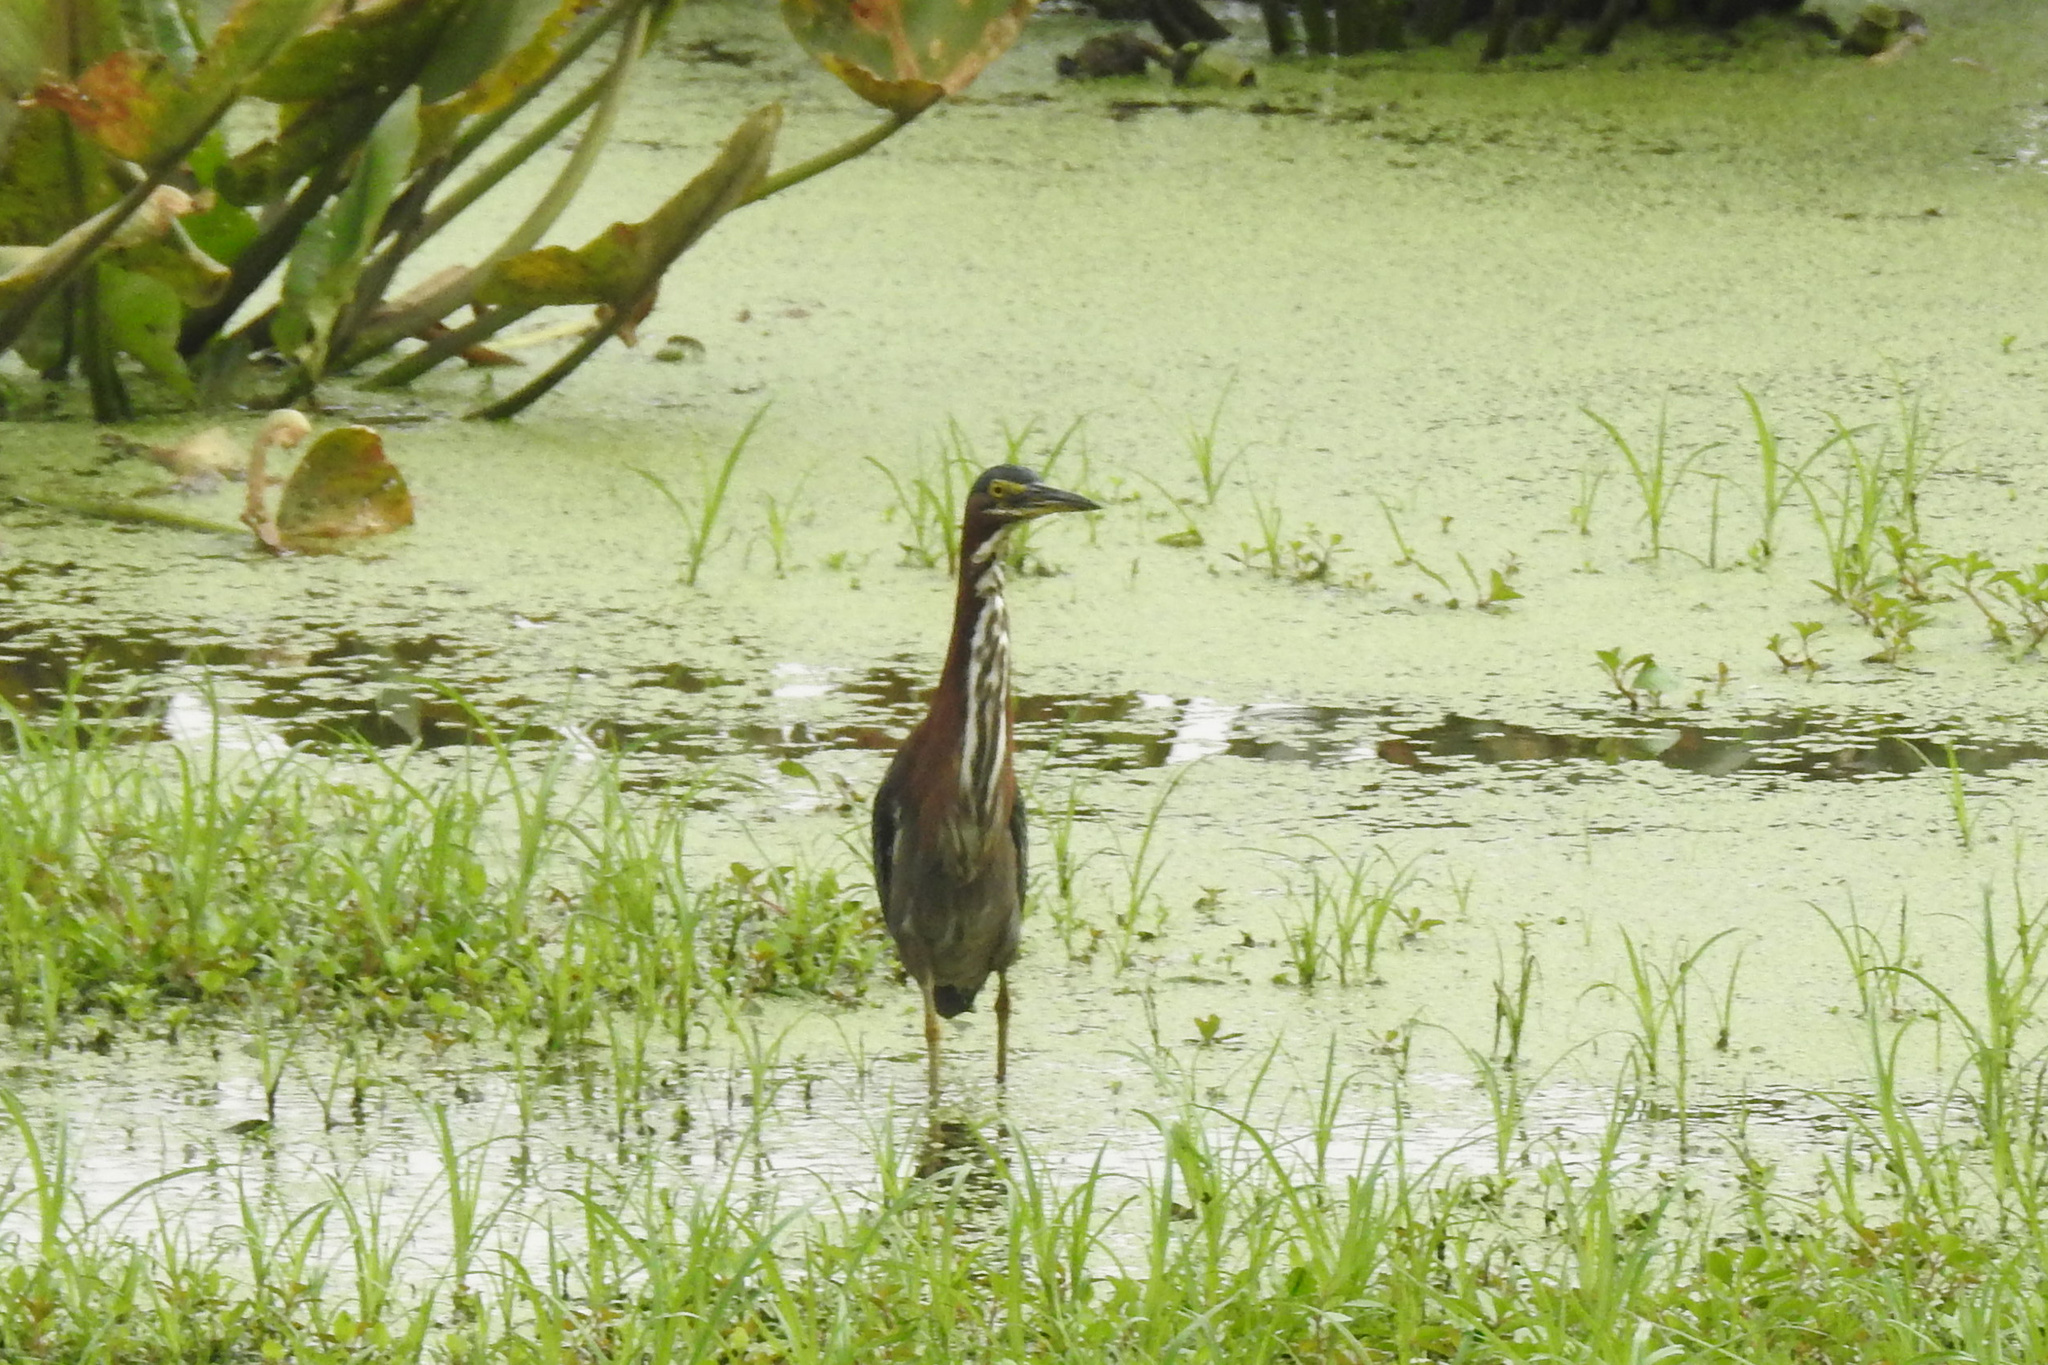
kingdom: Animalia
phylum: Chordata
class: Aves
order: Pelecaniformes
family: Ardeidae
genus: Butorides
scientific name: Butorides virescens
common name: Green heron
